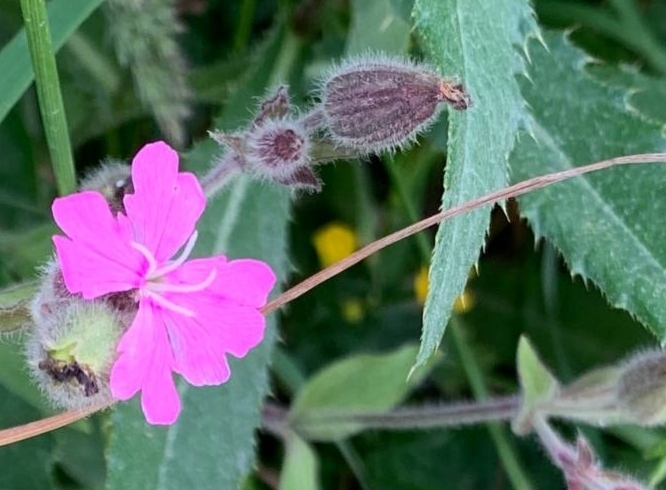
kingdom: Plantae
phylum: Tracheophyta
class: Magnoliopsida
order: Caryophyllales
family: Caryophyllaceae
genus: Silene
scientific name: Silene dioica
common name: Red campion
